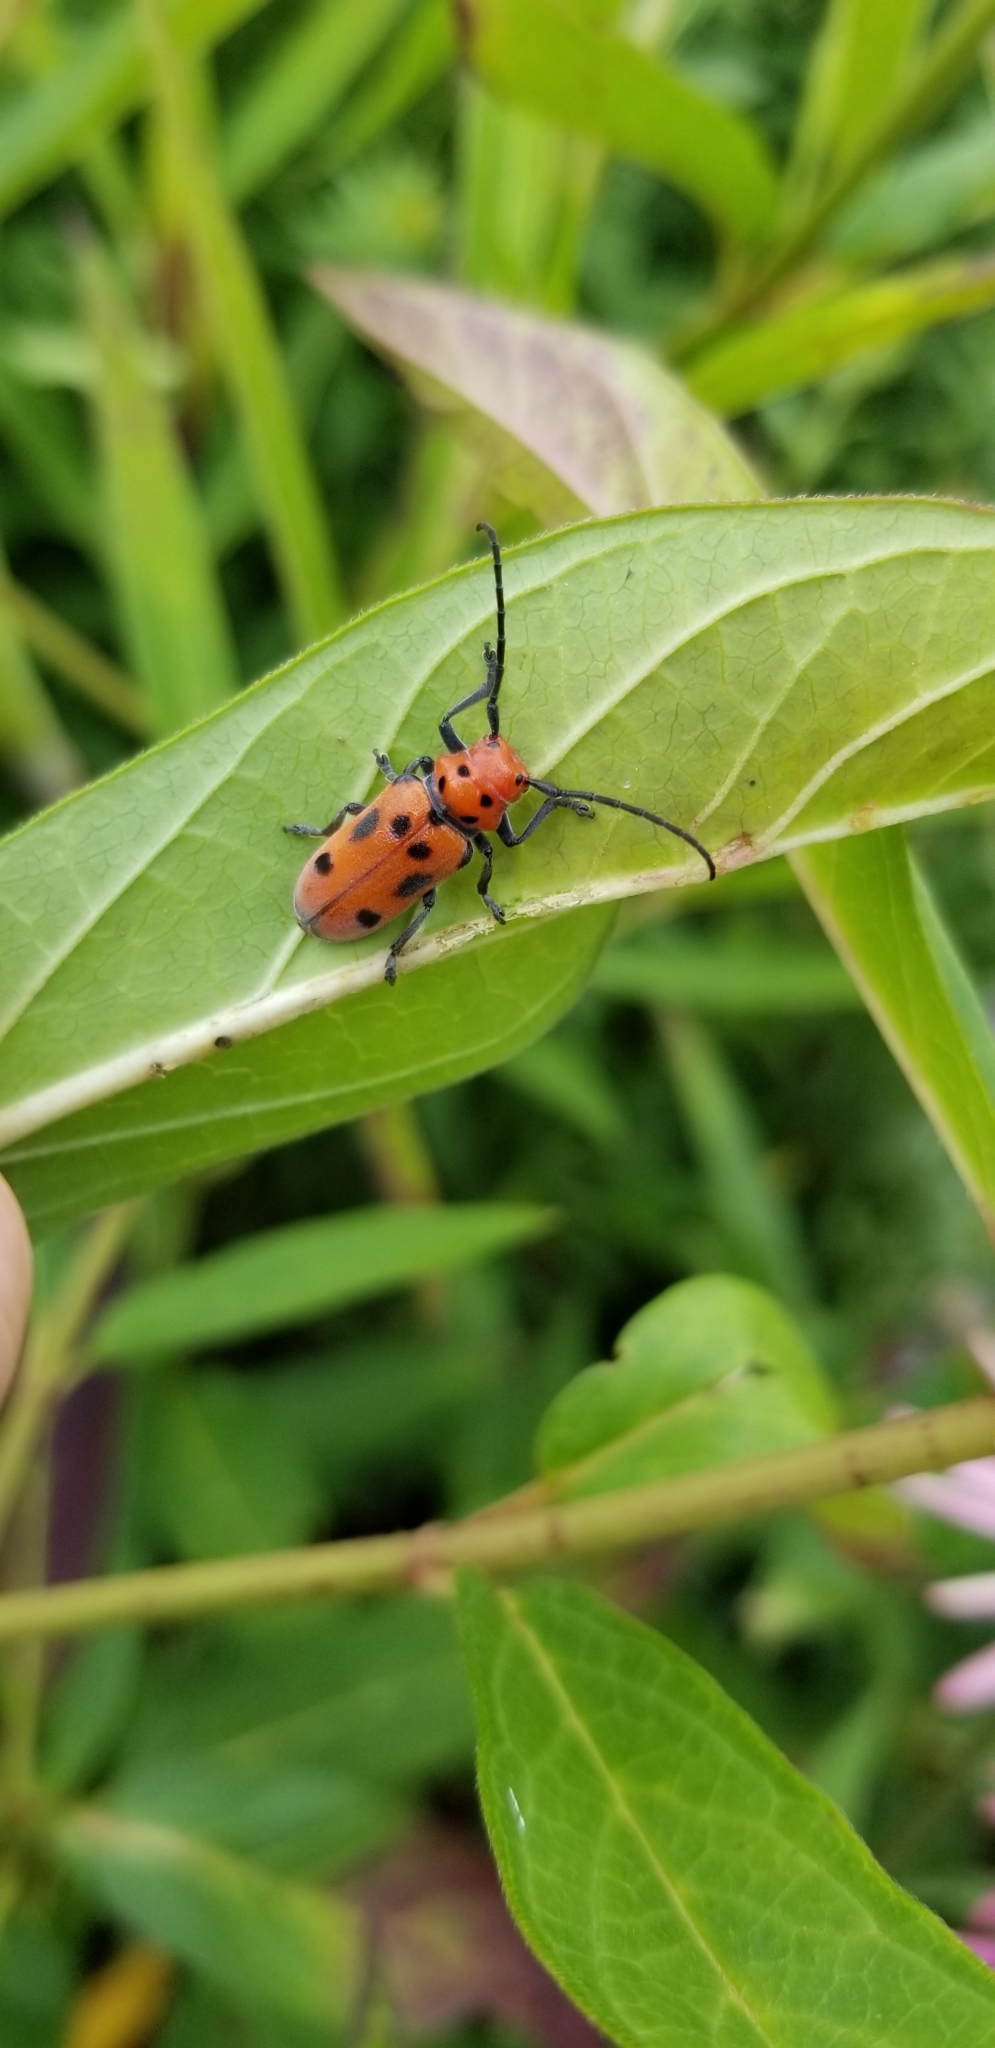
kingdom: Animalia
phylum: Arthropoda
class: Insecta
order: Coleoptera
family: Cerambycidae
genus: Tetraopes
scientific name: Tetraopes tetrophthalmus
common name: Red milkweed beetle
